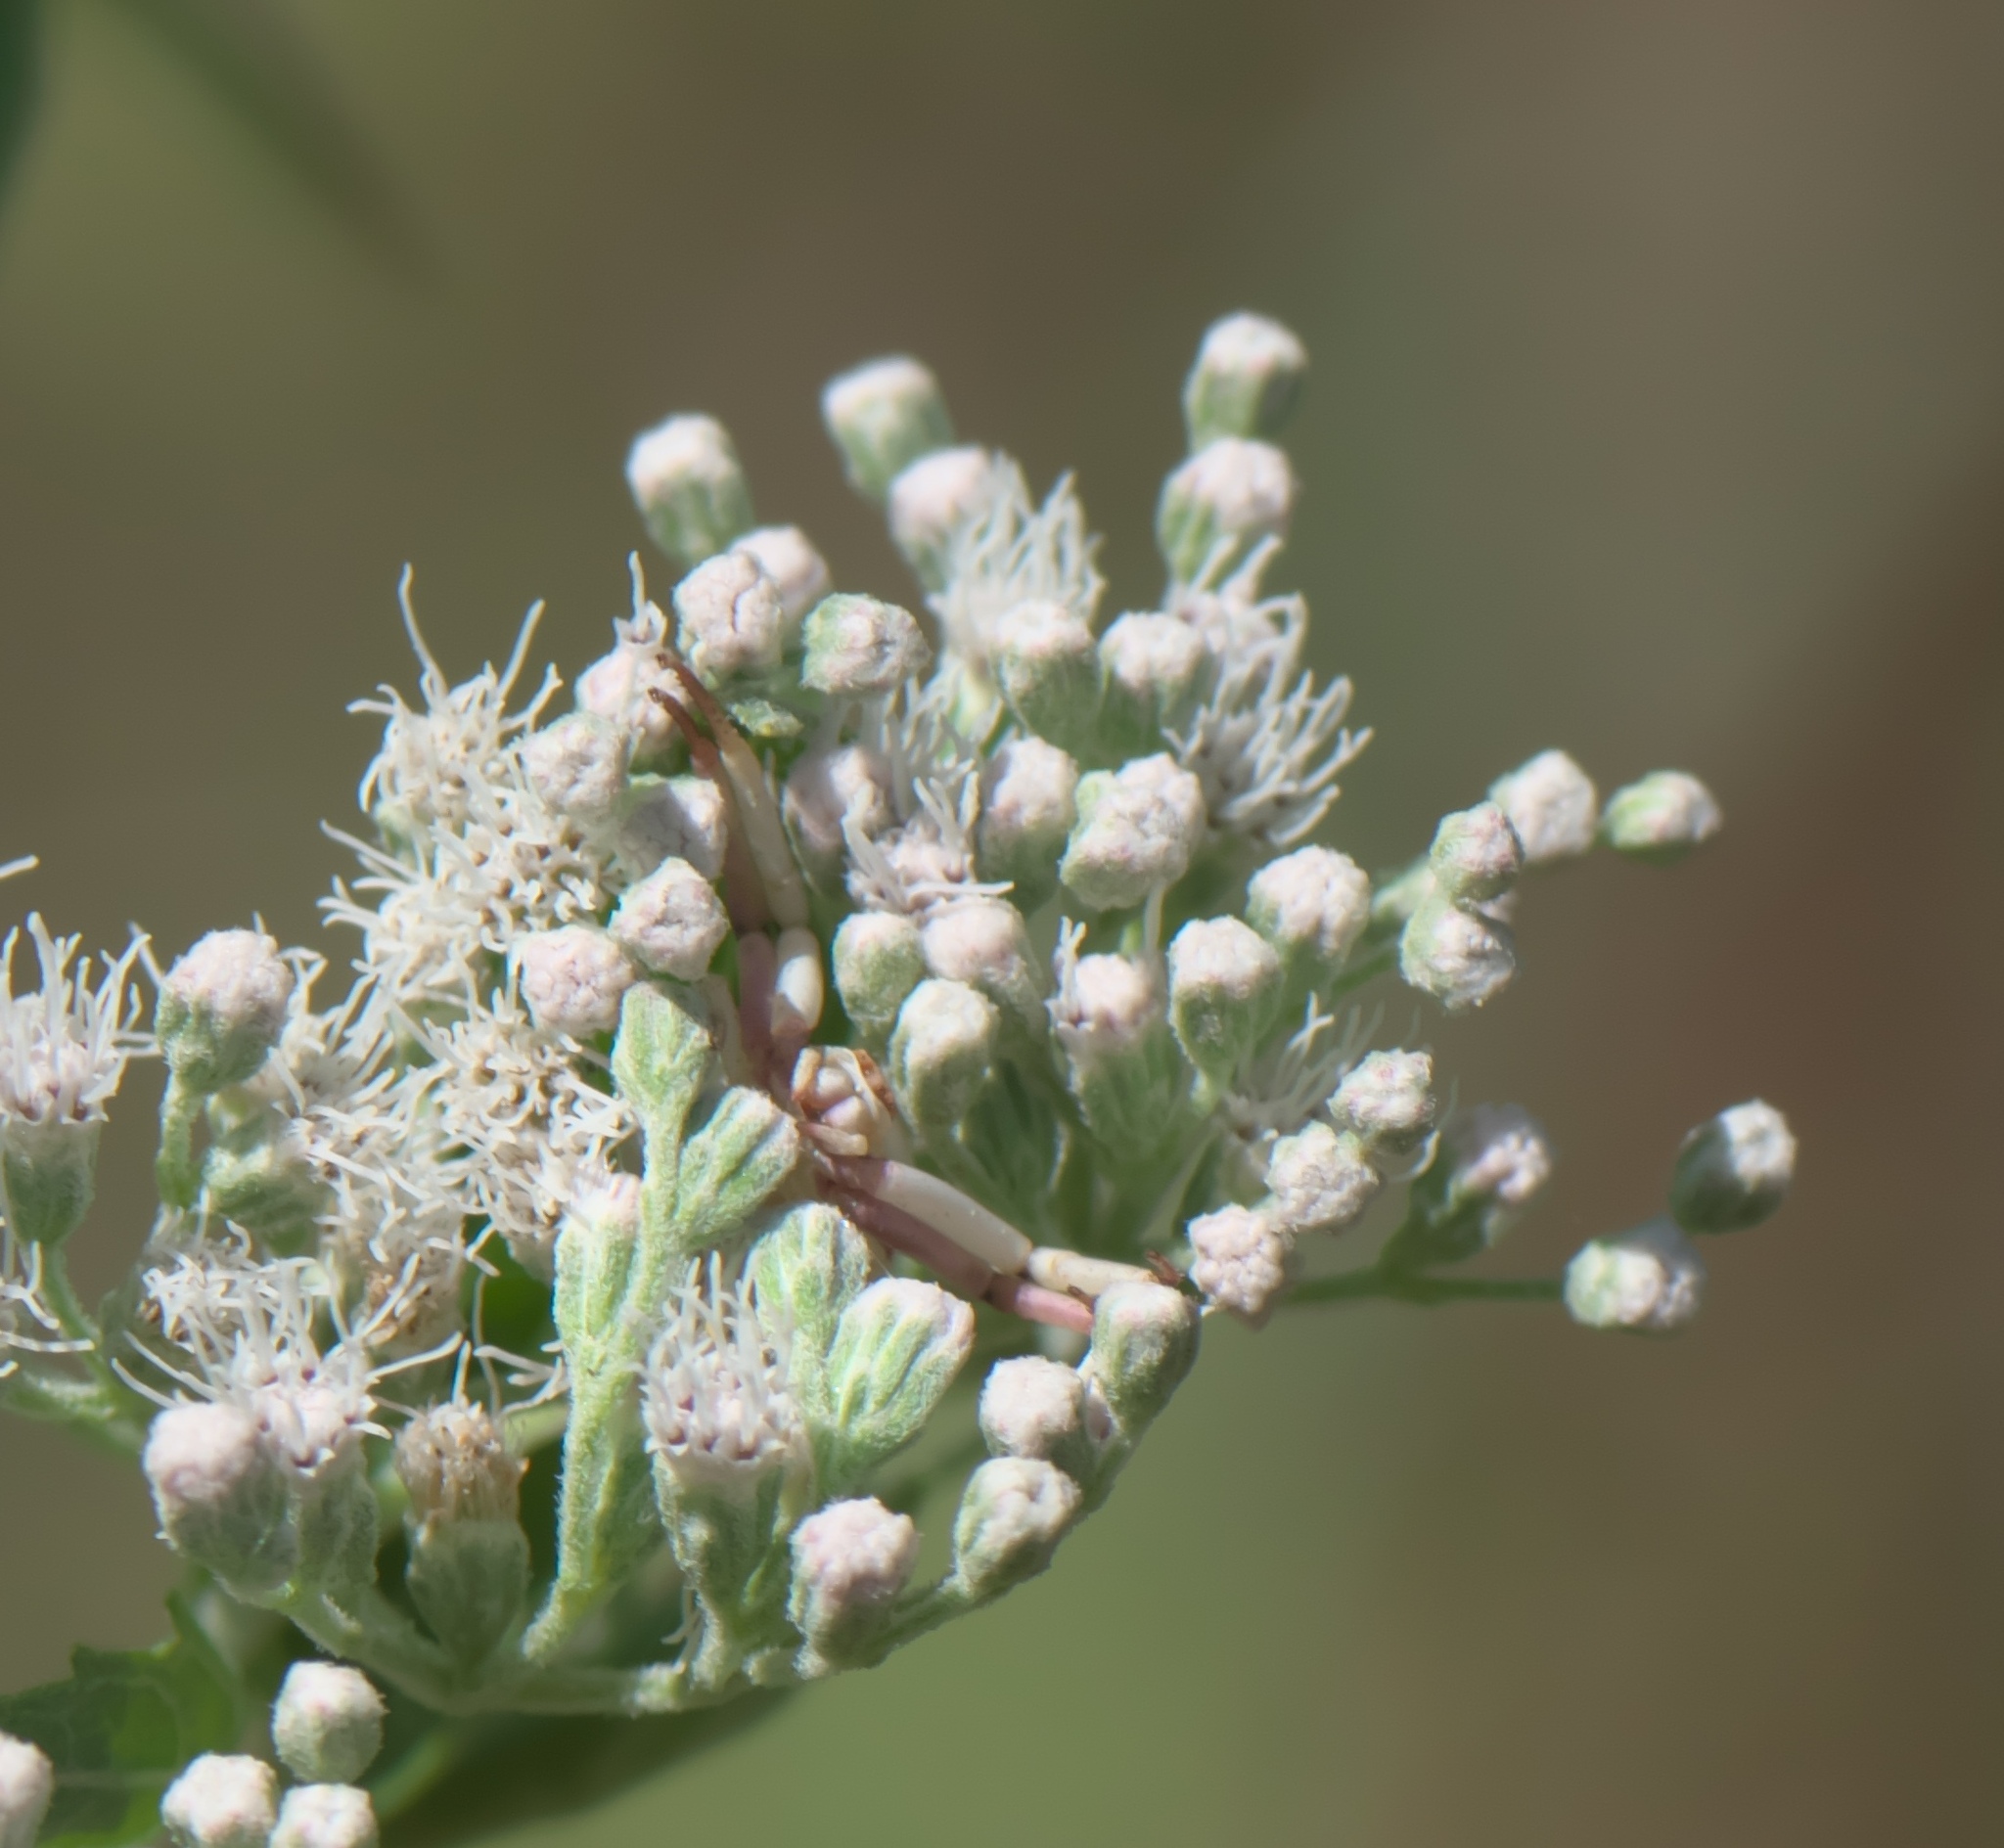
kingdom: Animalia
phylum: Arthropoda
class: Arachnida
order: Araneae
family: Thomisidae
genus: Misumenoides
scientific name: Misumenoides formosipes
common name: White-banded crab spider
